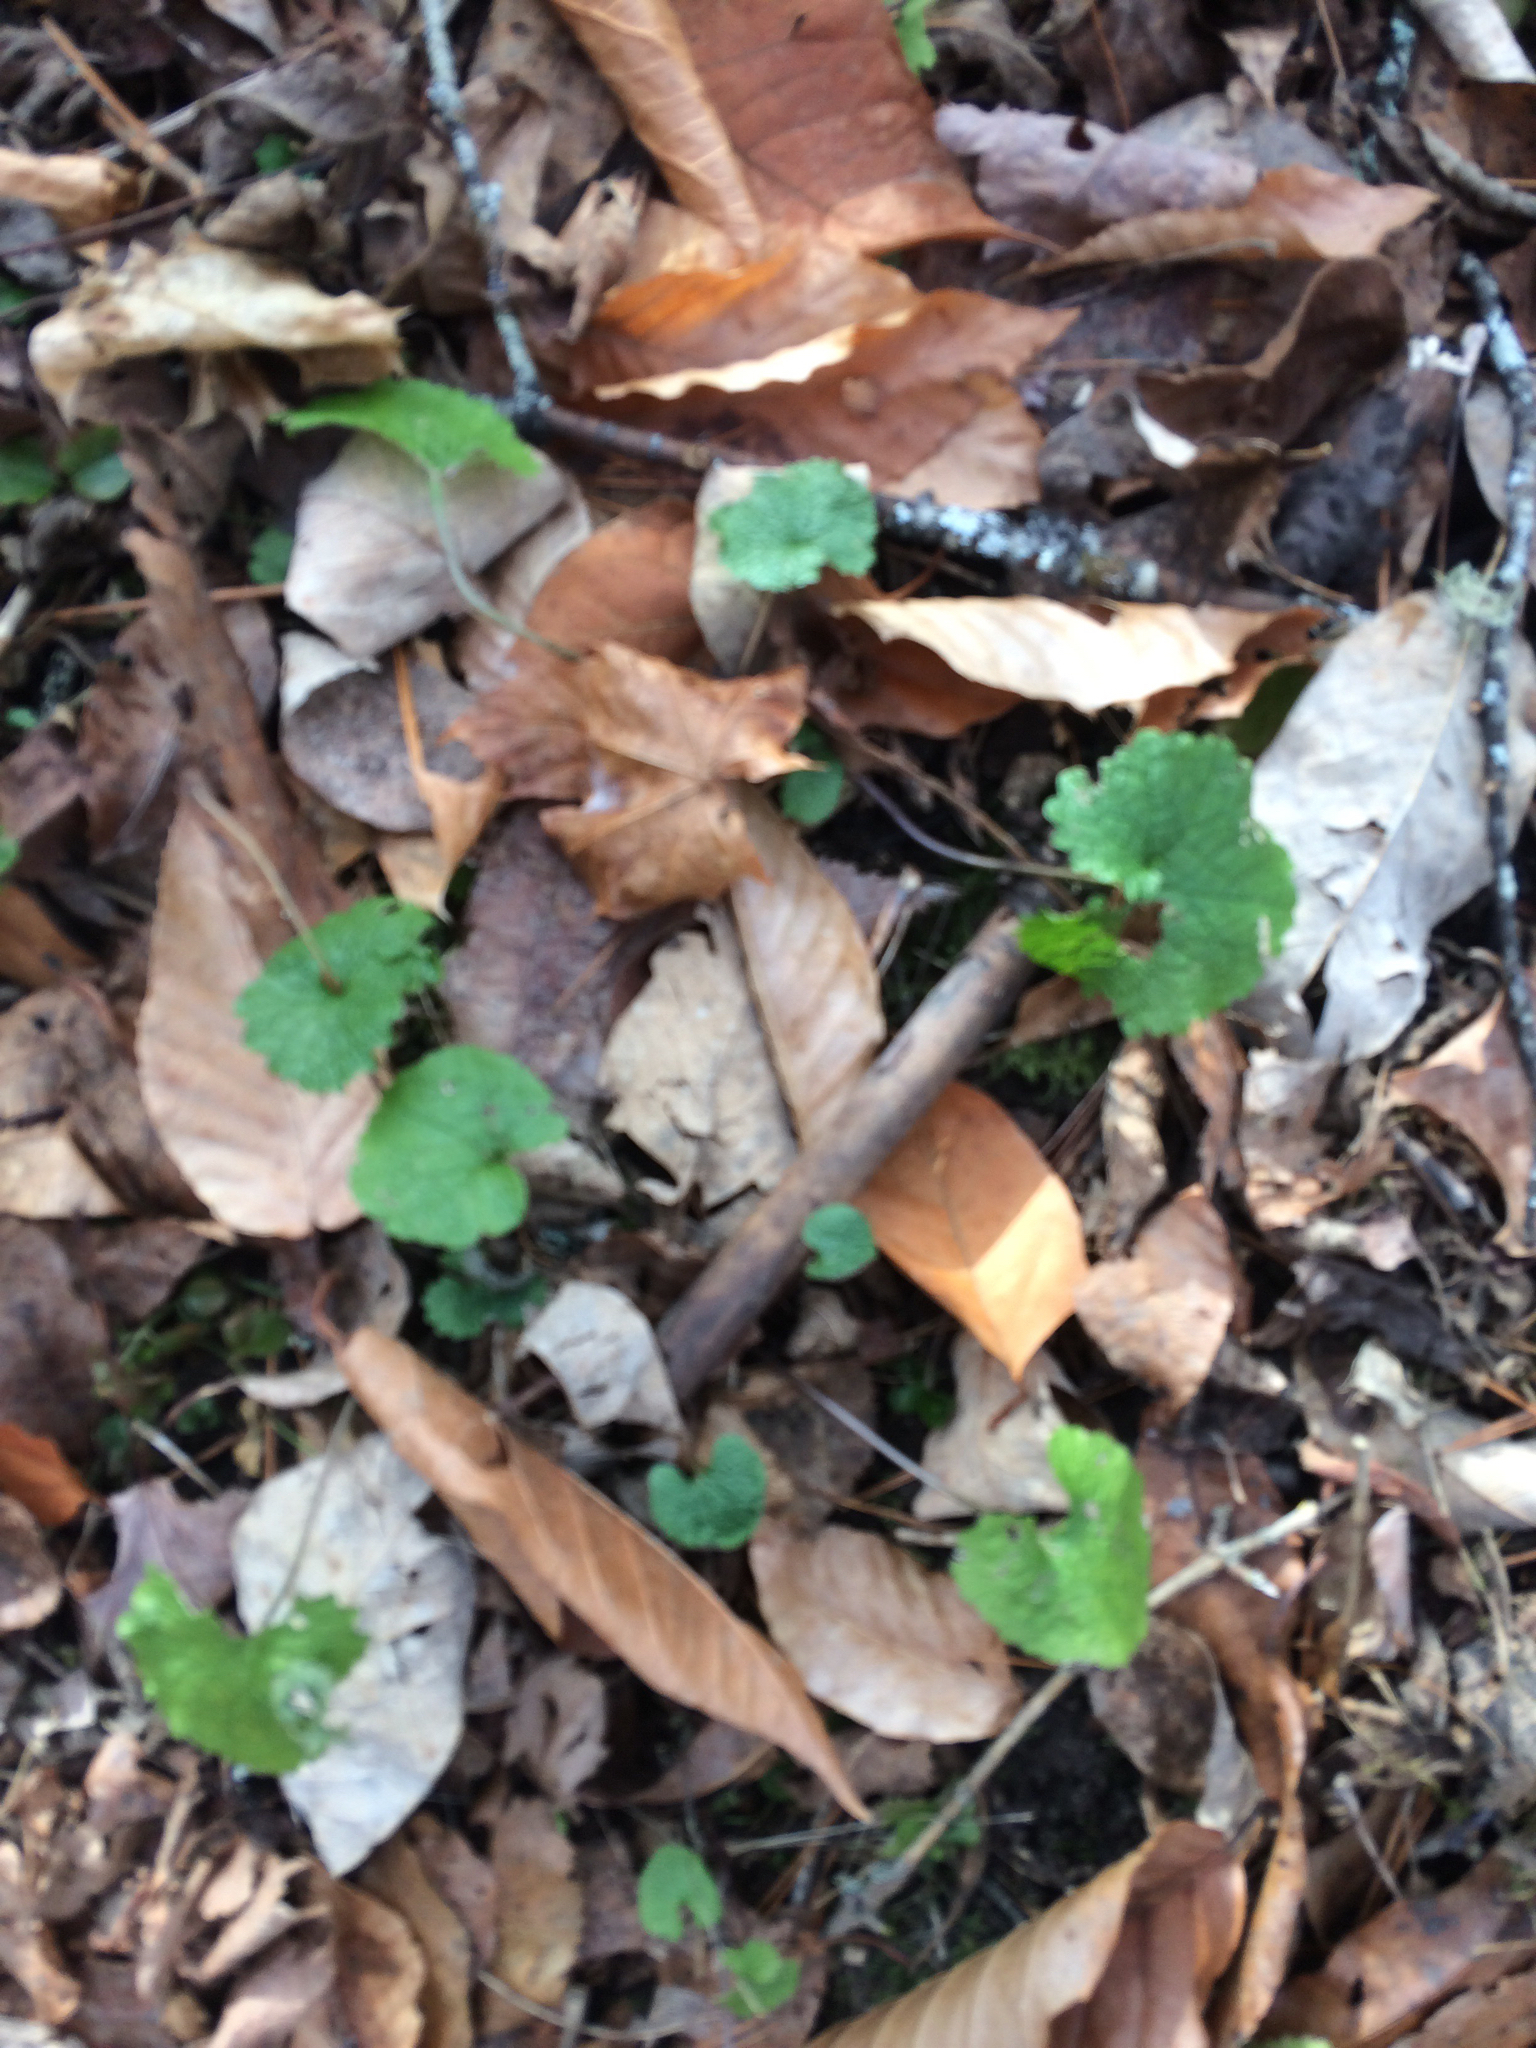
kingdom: Plantae
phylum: Tracheophyta
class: Magnoliopsida
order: Brassicales
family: Brassicaceae
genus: Alliaria
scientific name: Alliaria petiolata
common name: Garlic mustard
